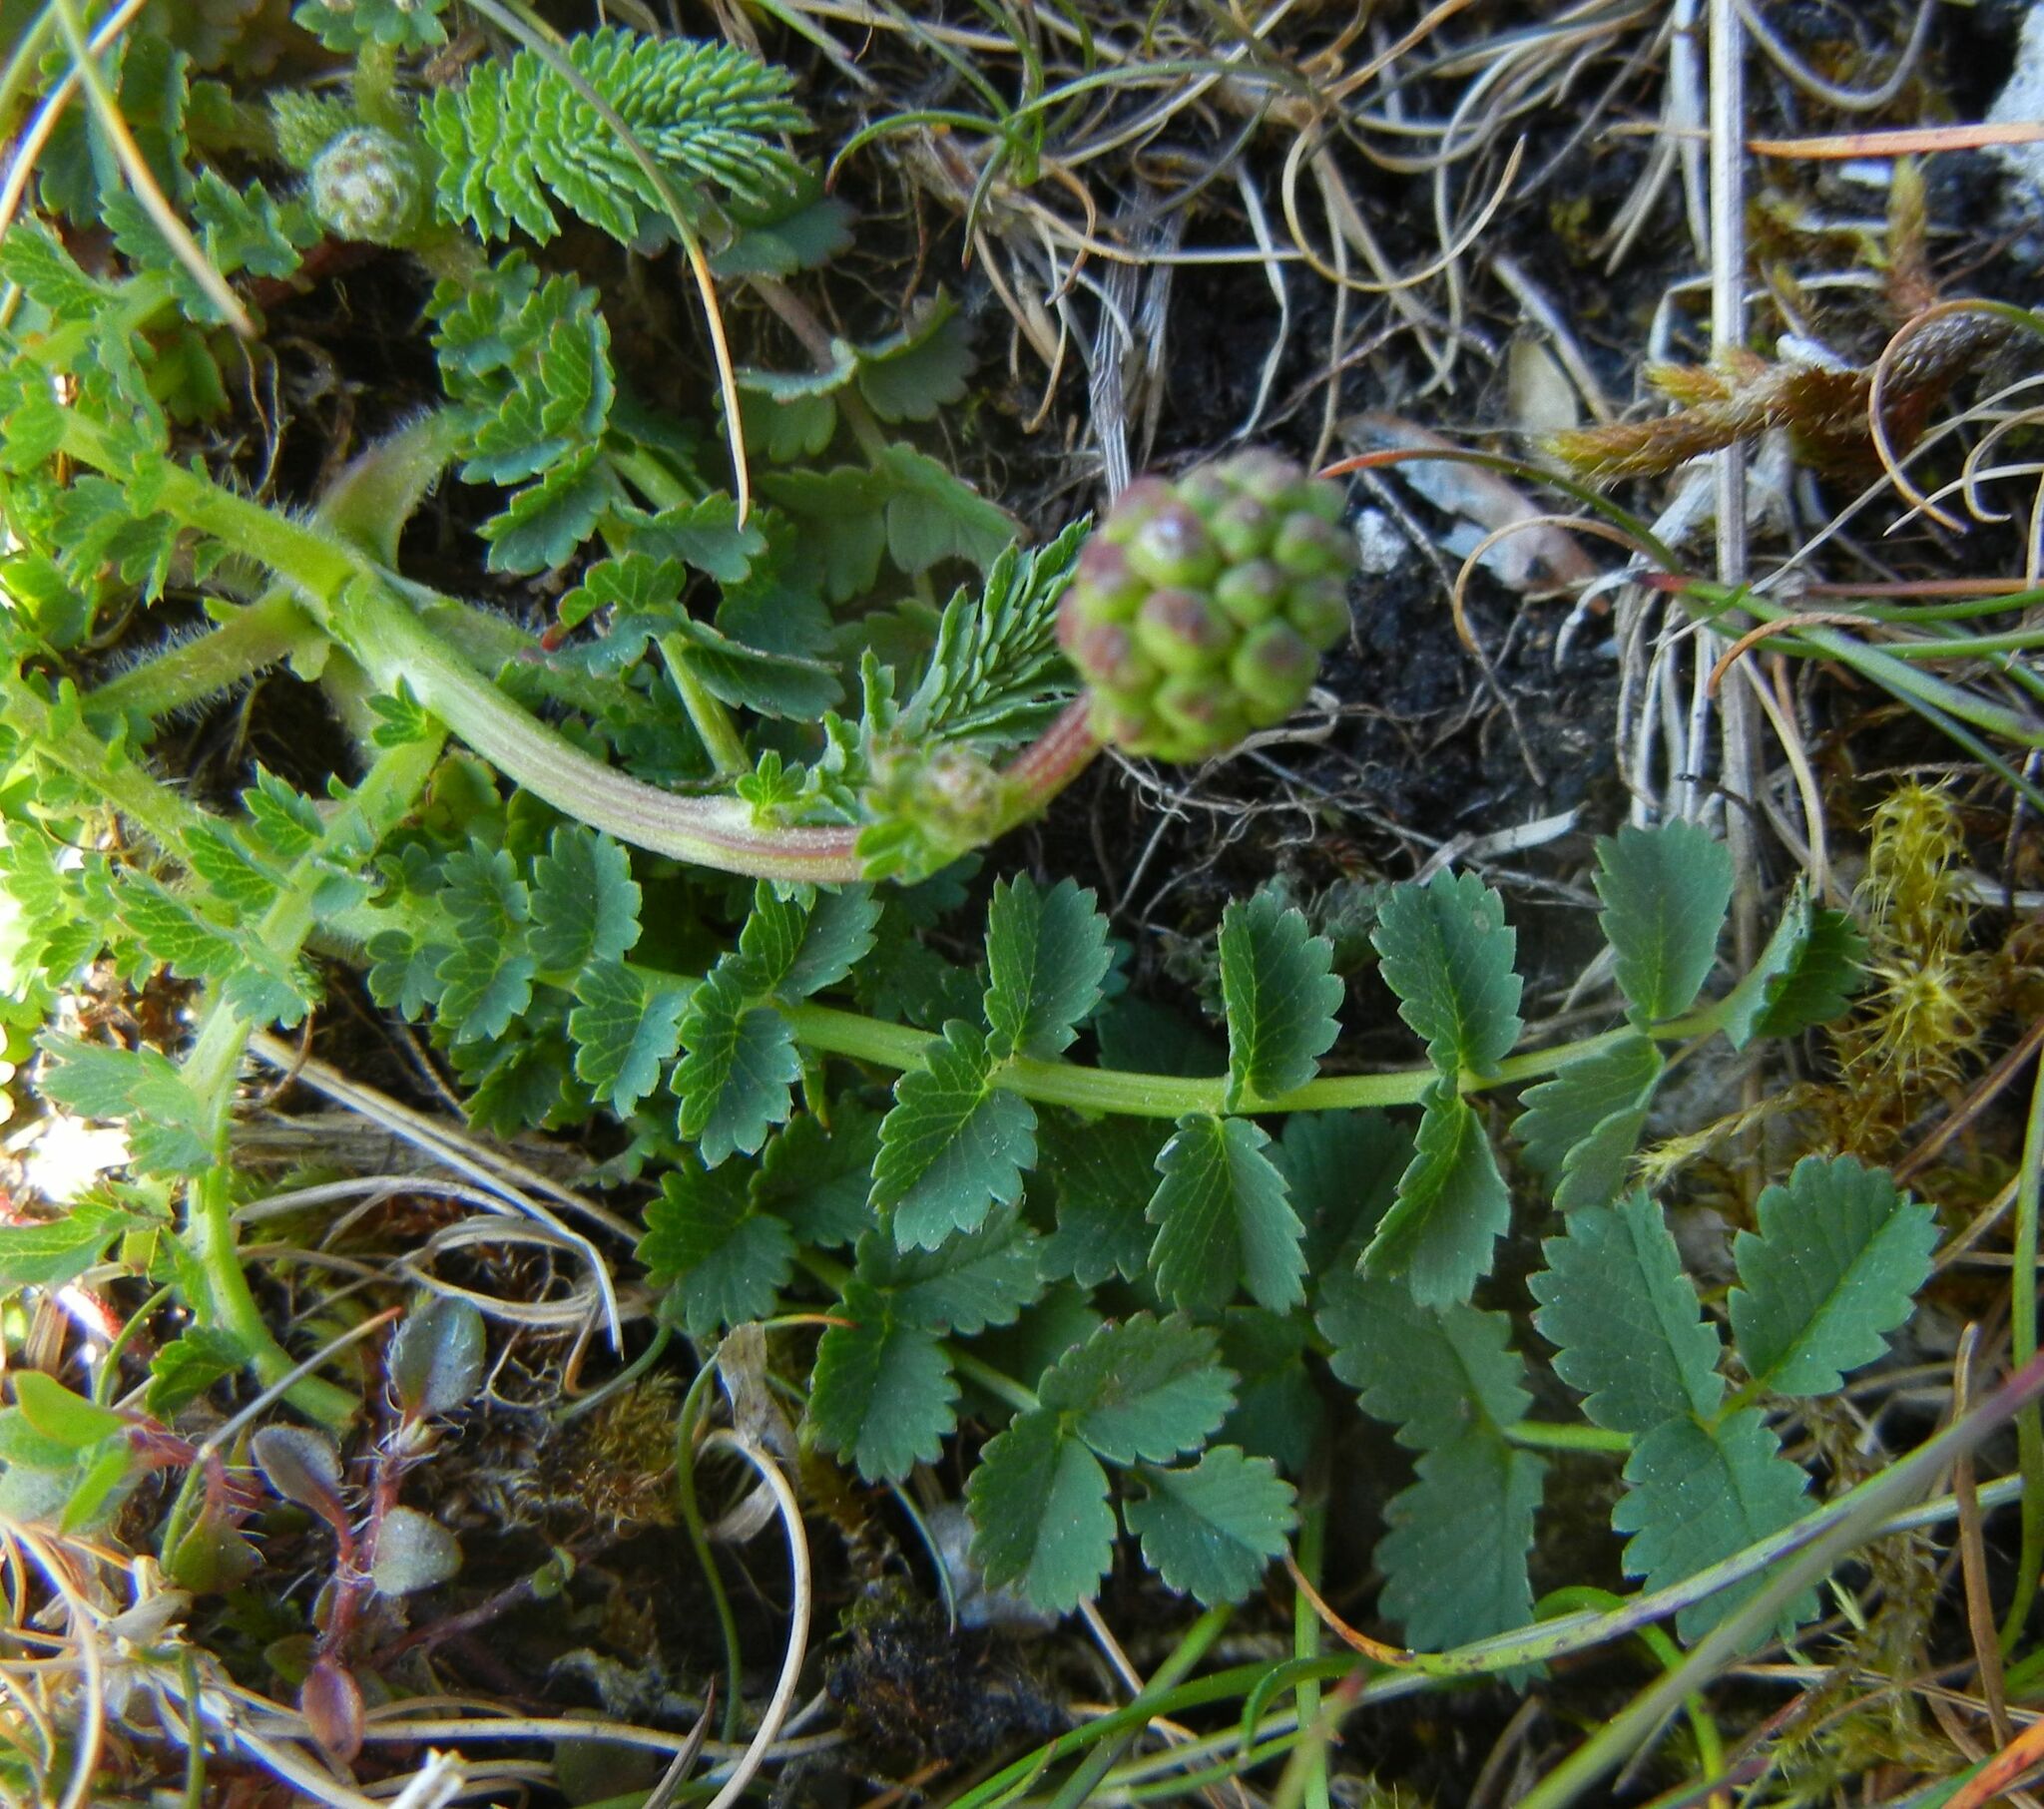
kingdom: Plantae
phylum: Tracheophyta
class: Magnoliopsida
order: Rosales
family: Rosaceae
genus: Poterium
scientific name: Poterium sanguisorba
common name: Salad burnet
